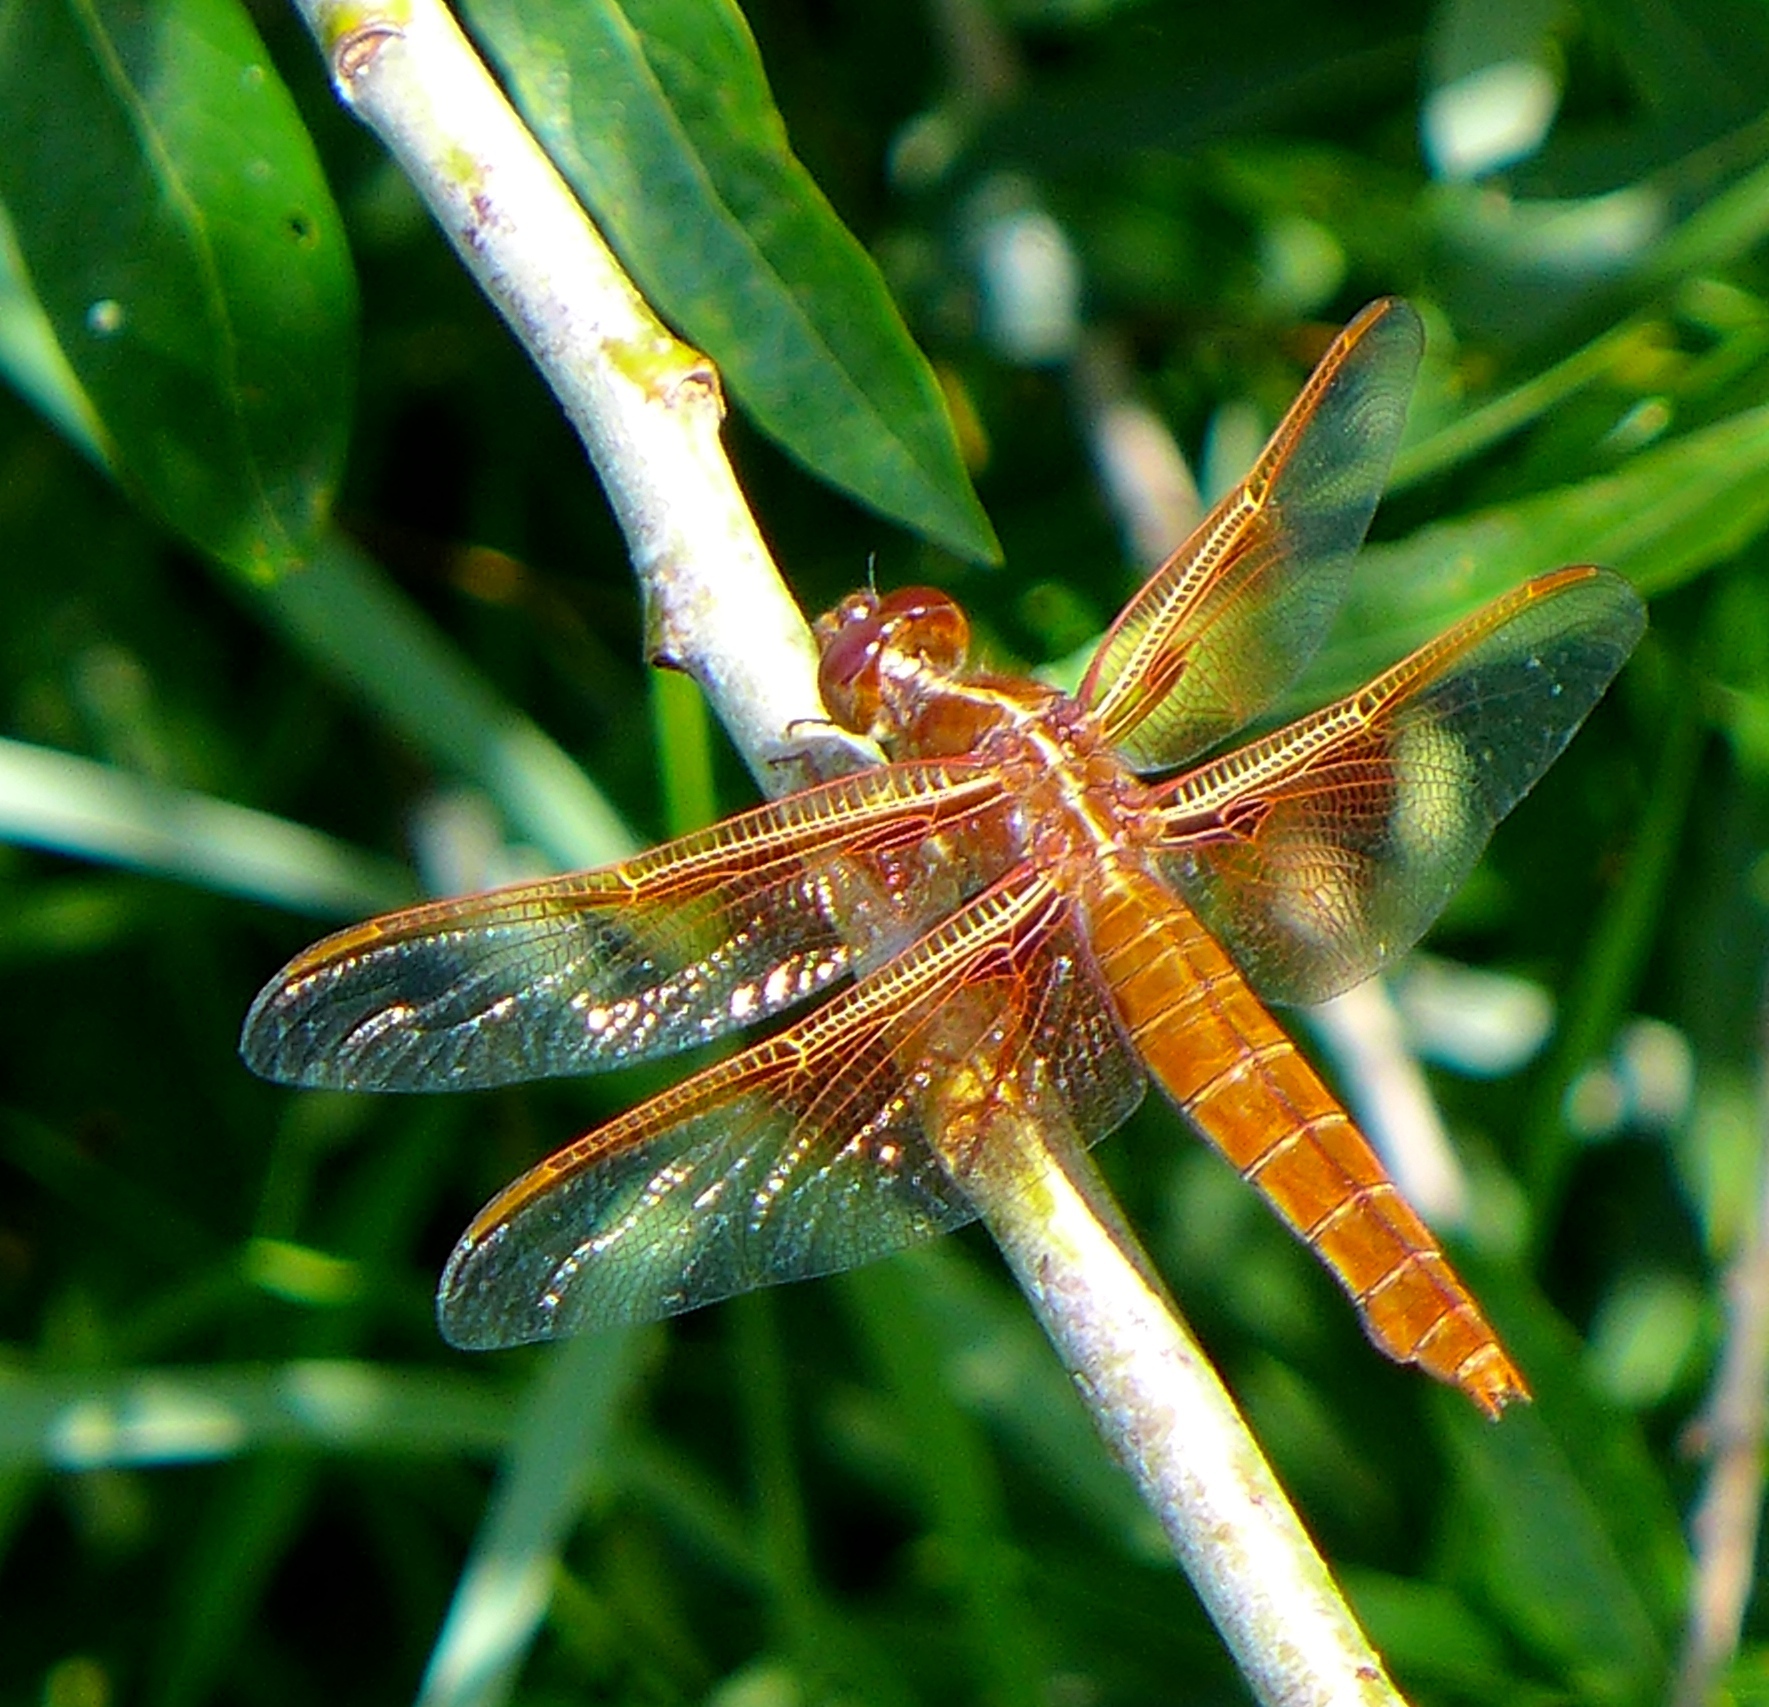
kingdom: Animalia
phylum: Arthropoda
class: Insecta
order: Odonata
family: Libellulidae
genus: Libellula
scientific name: Libellula saturata
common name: Flame skimmer
